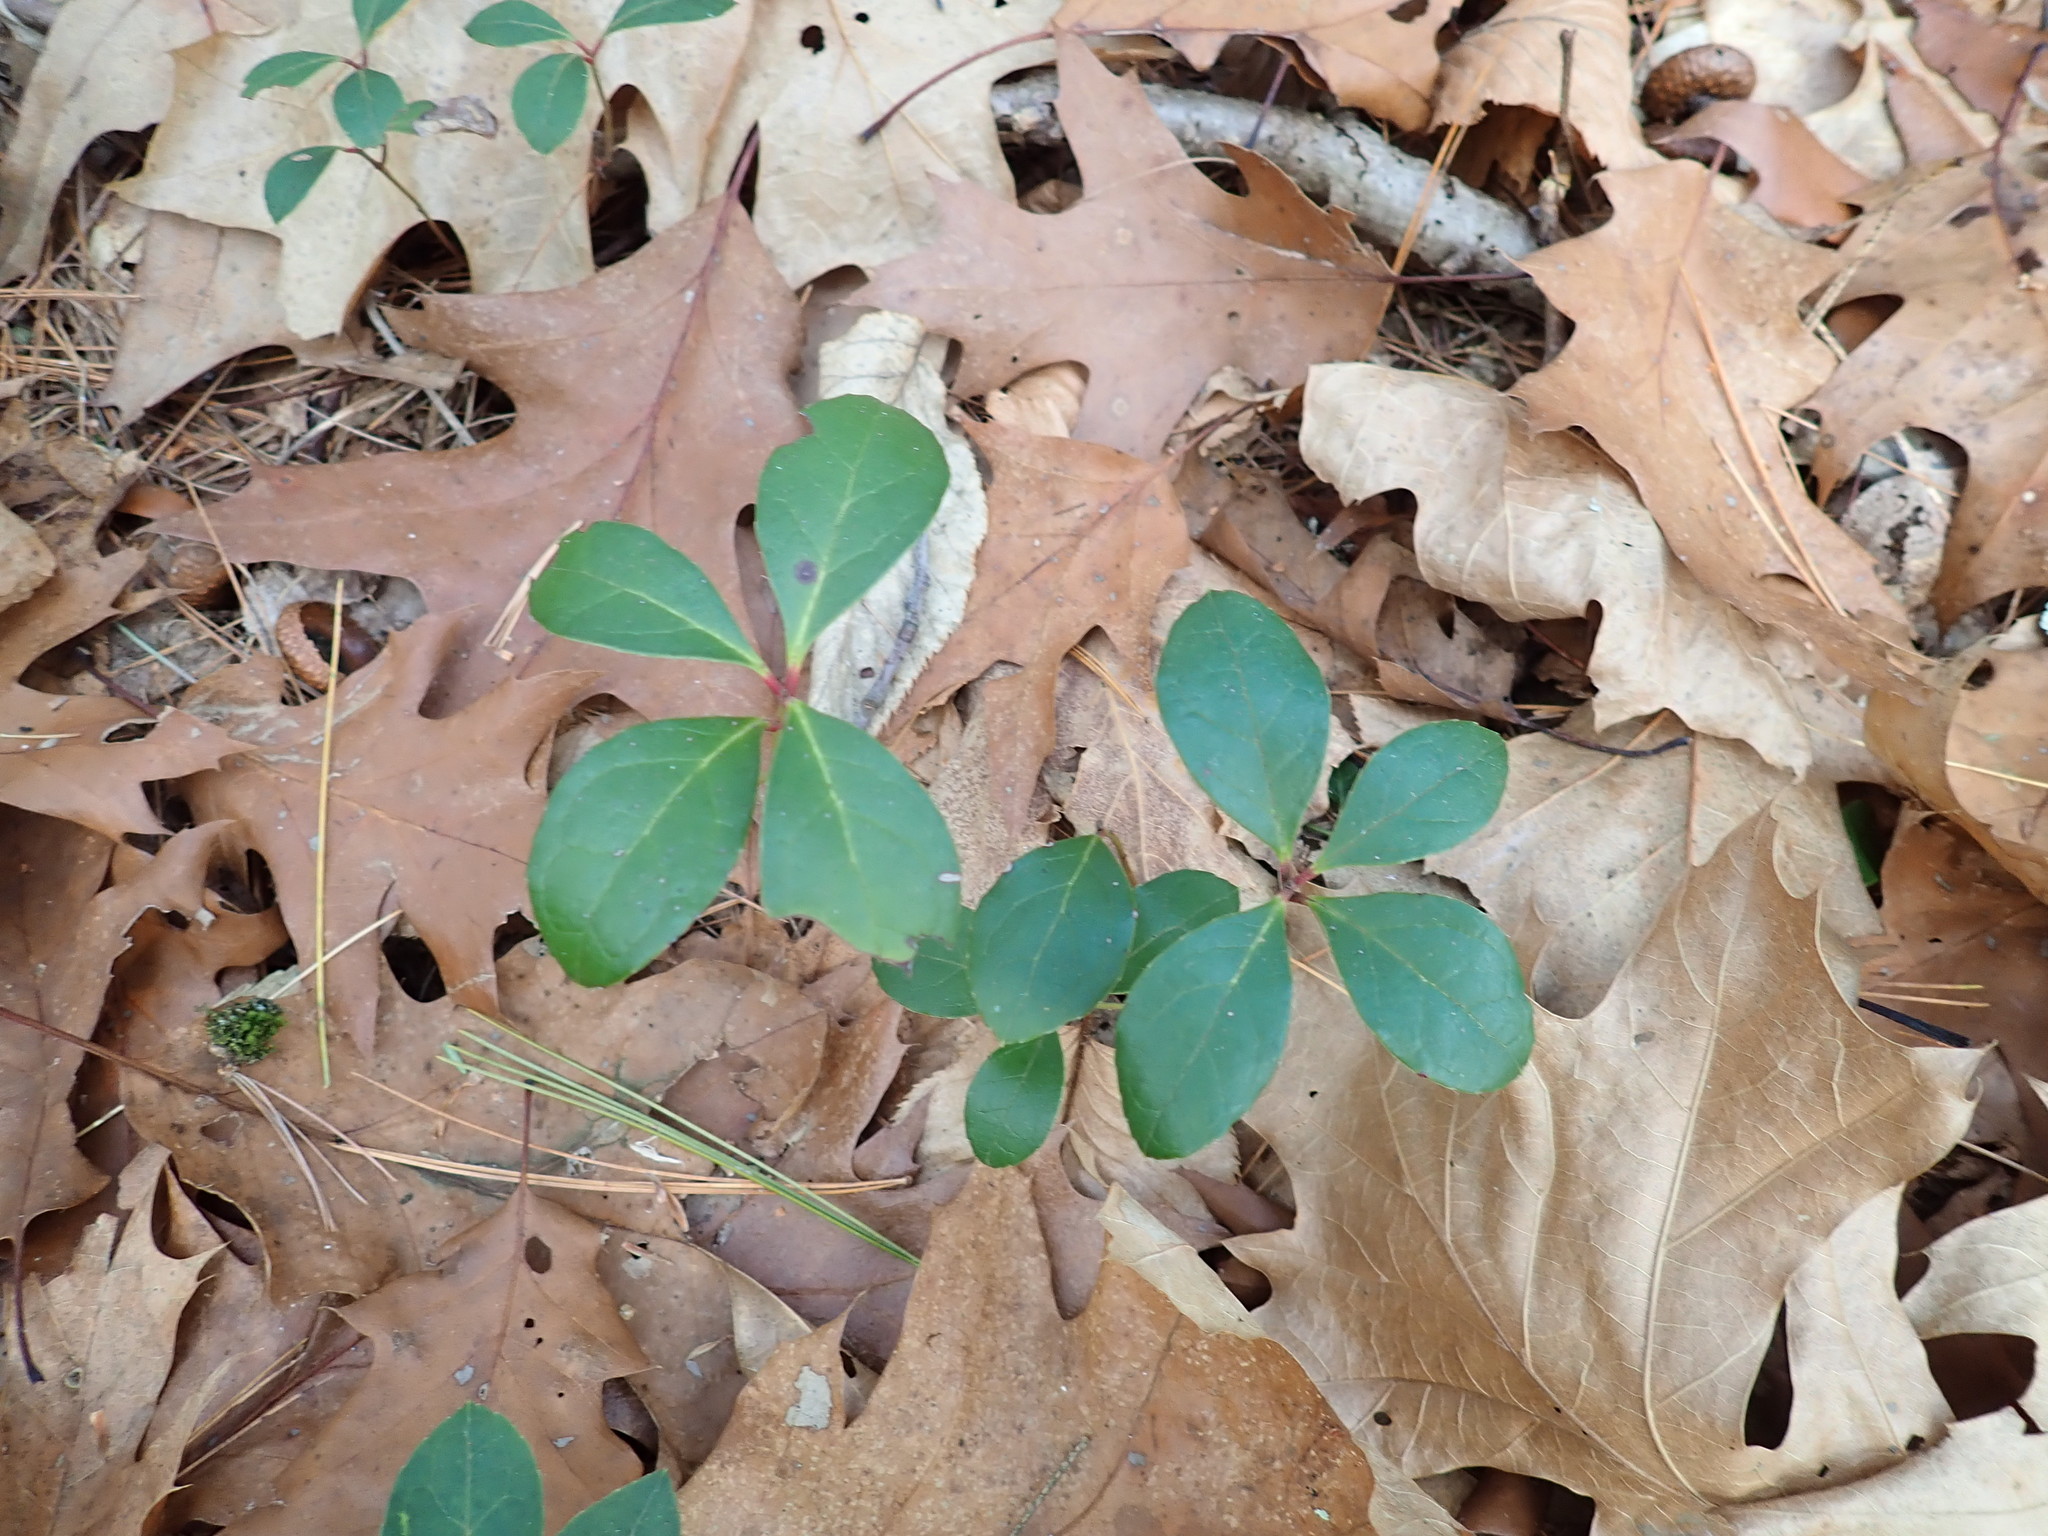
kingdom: Plantae
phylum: Tracheophyta
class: Magnoliopsida
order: Ericales
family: Ericaceae
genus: Gaultheria
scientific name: Gaultheria procumbens
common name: Checkerberry
